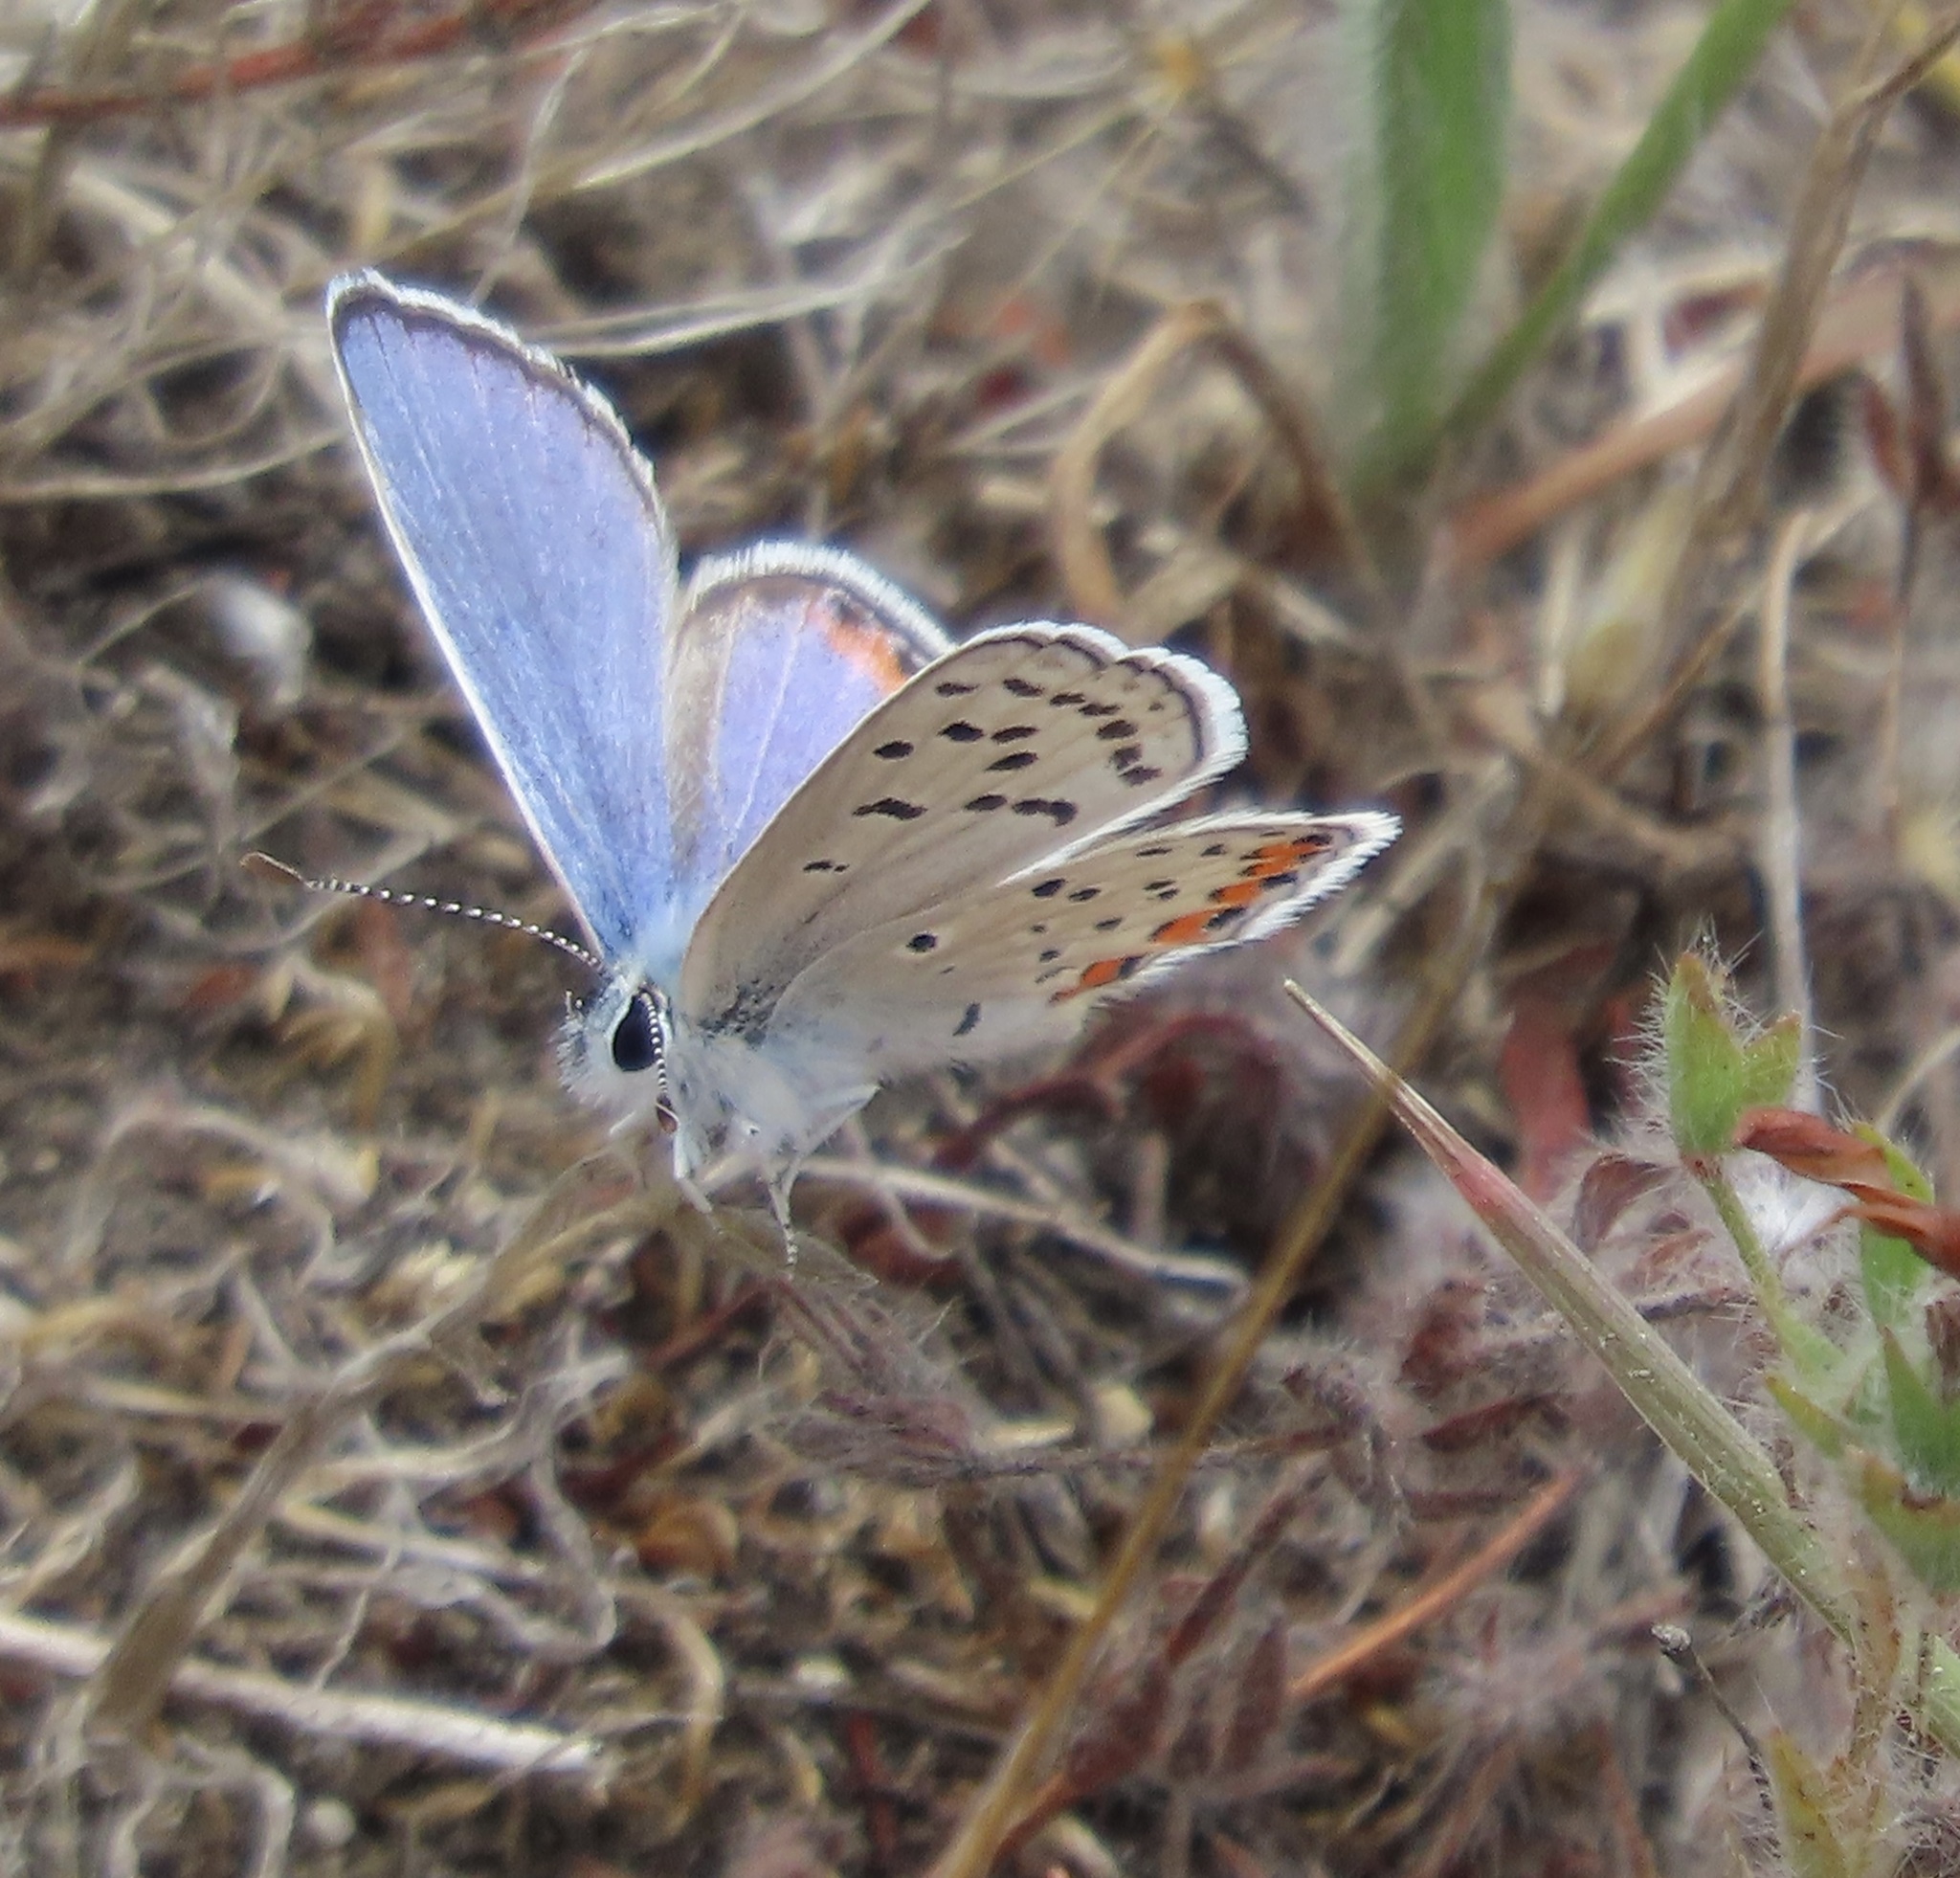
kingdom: Animalia
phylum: Arthropoda
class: Insecta
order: Lepidoptera
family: Lycaenidae
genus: Icaricia
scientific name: Icaricia acmon
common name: Acmon blue
